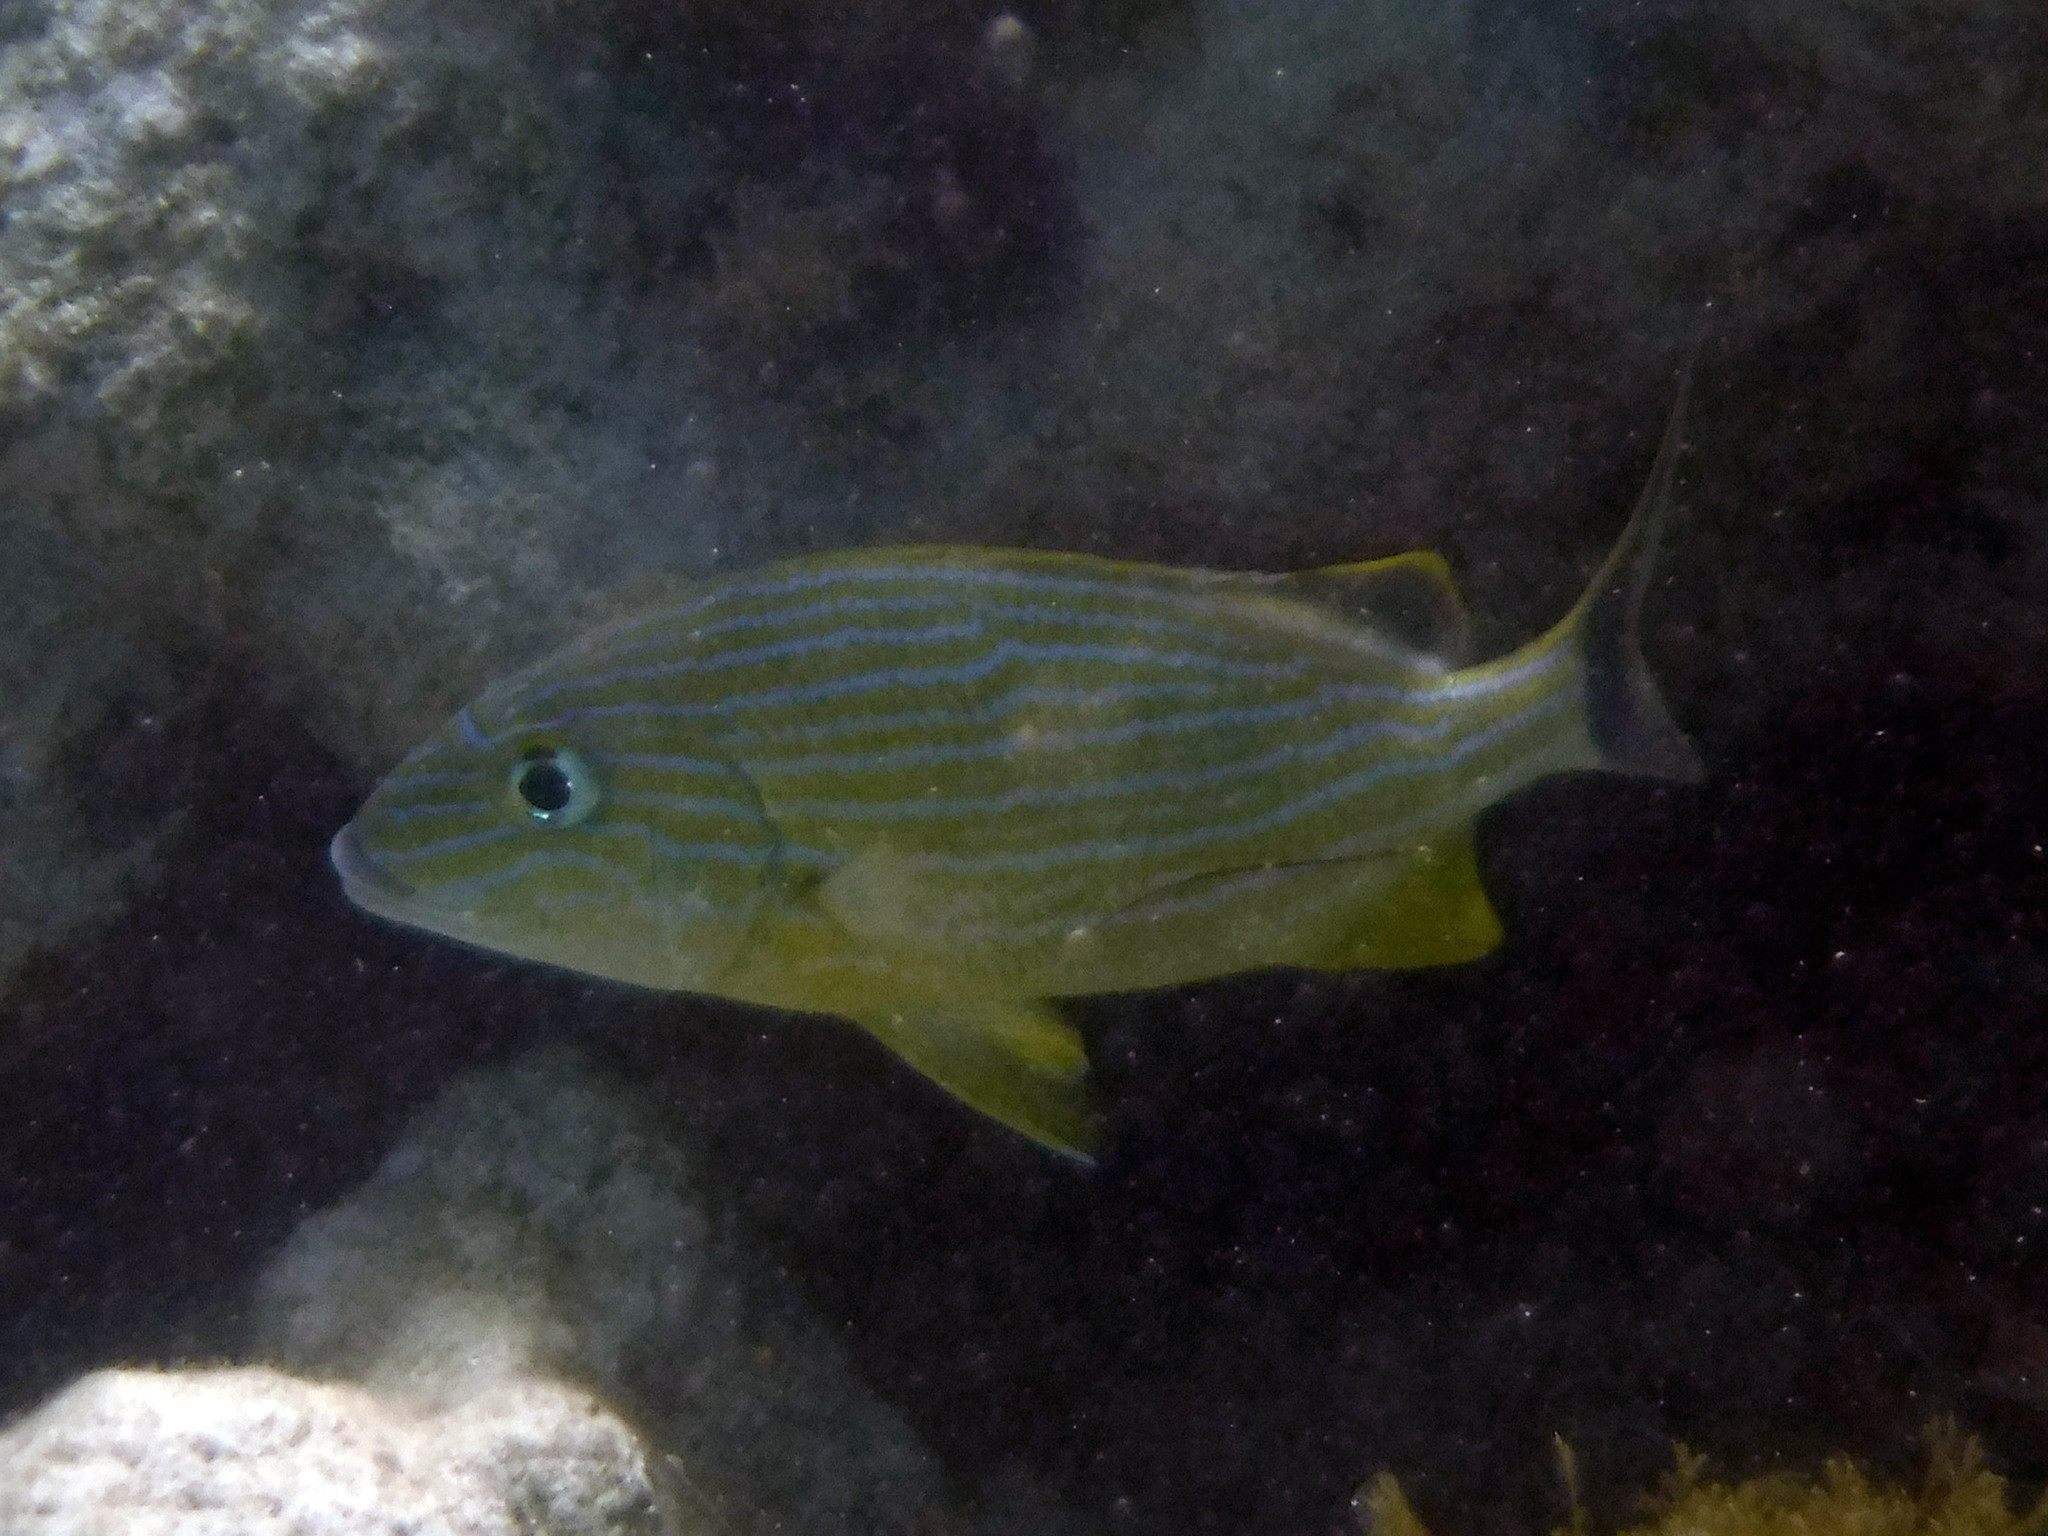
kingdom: Animalia
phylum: Chordata
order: Perciformes
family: Haemulidae
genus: Haemulon
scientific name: Haemulon sciurus
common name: Bluestriped grunt
